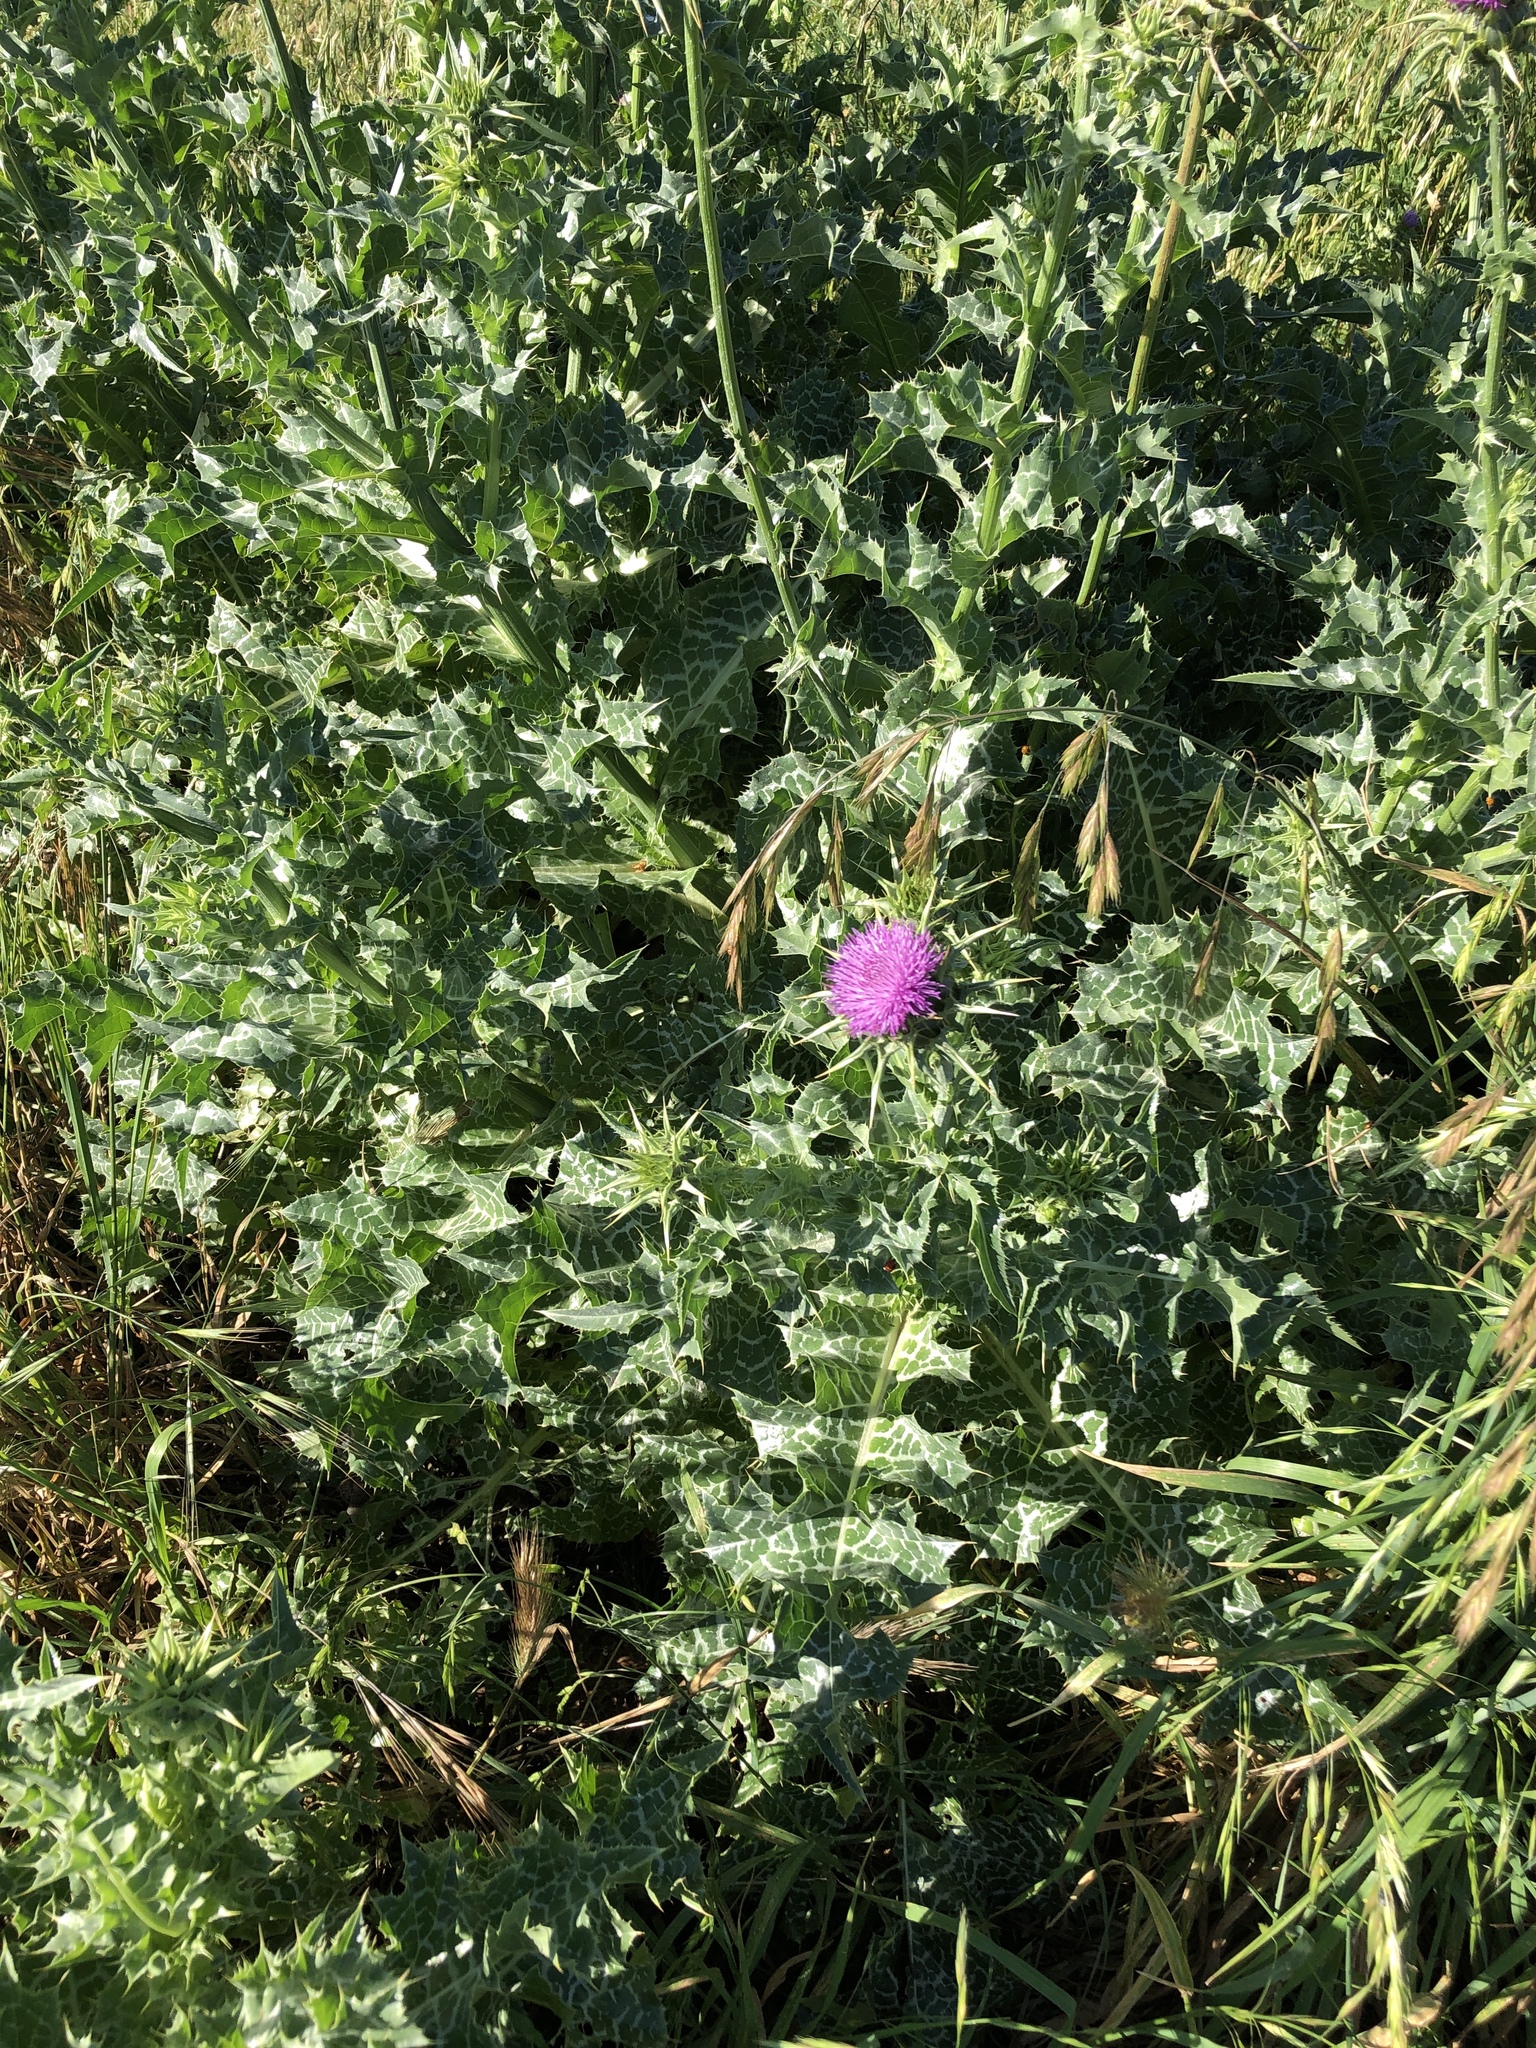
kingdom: Plantae
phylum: Tracheophyta
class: Magnoliopsida
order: Asterales
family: Asteraceae
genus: Silybum
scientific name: Silybum marianum
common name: Milk thistle
